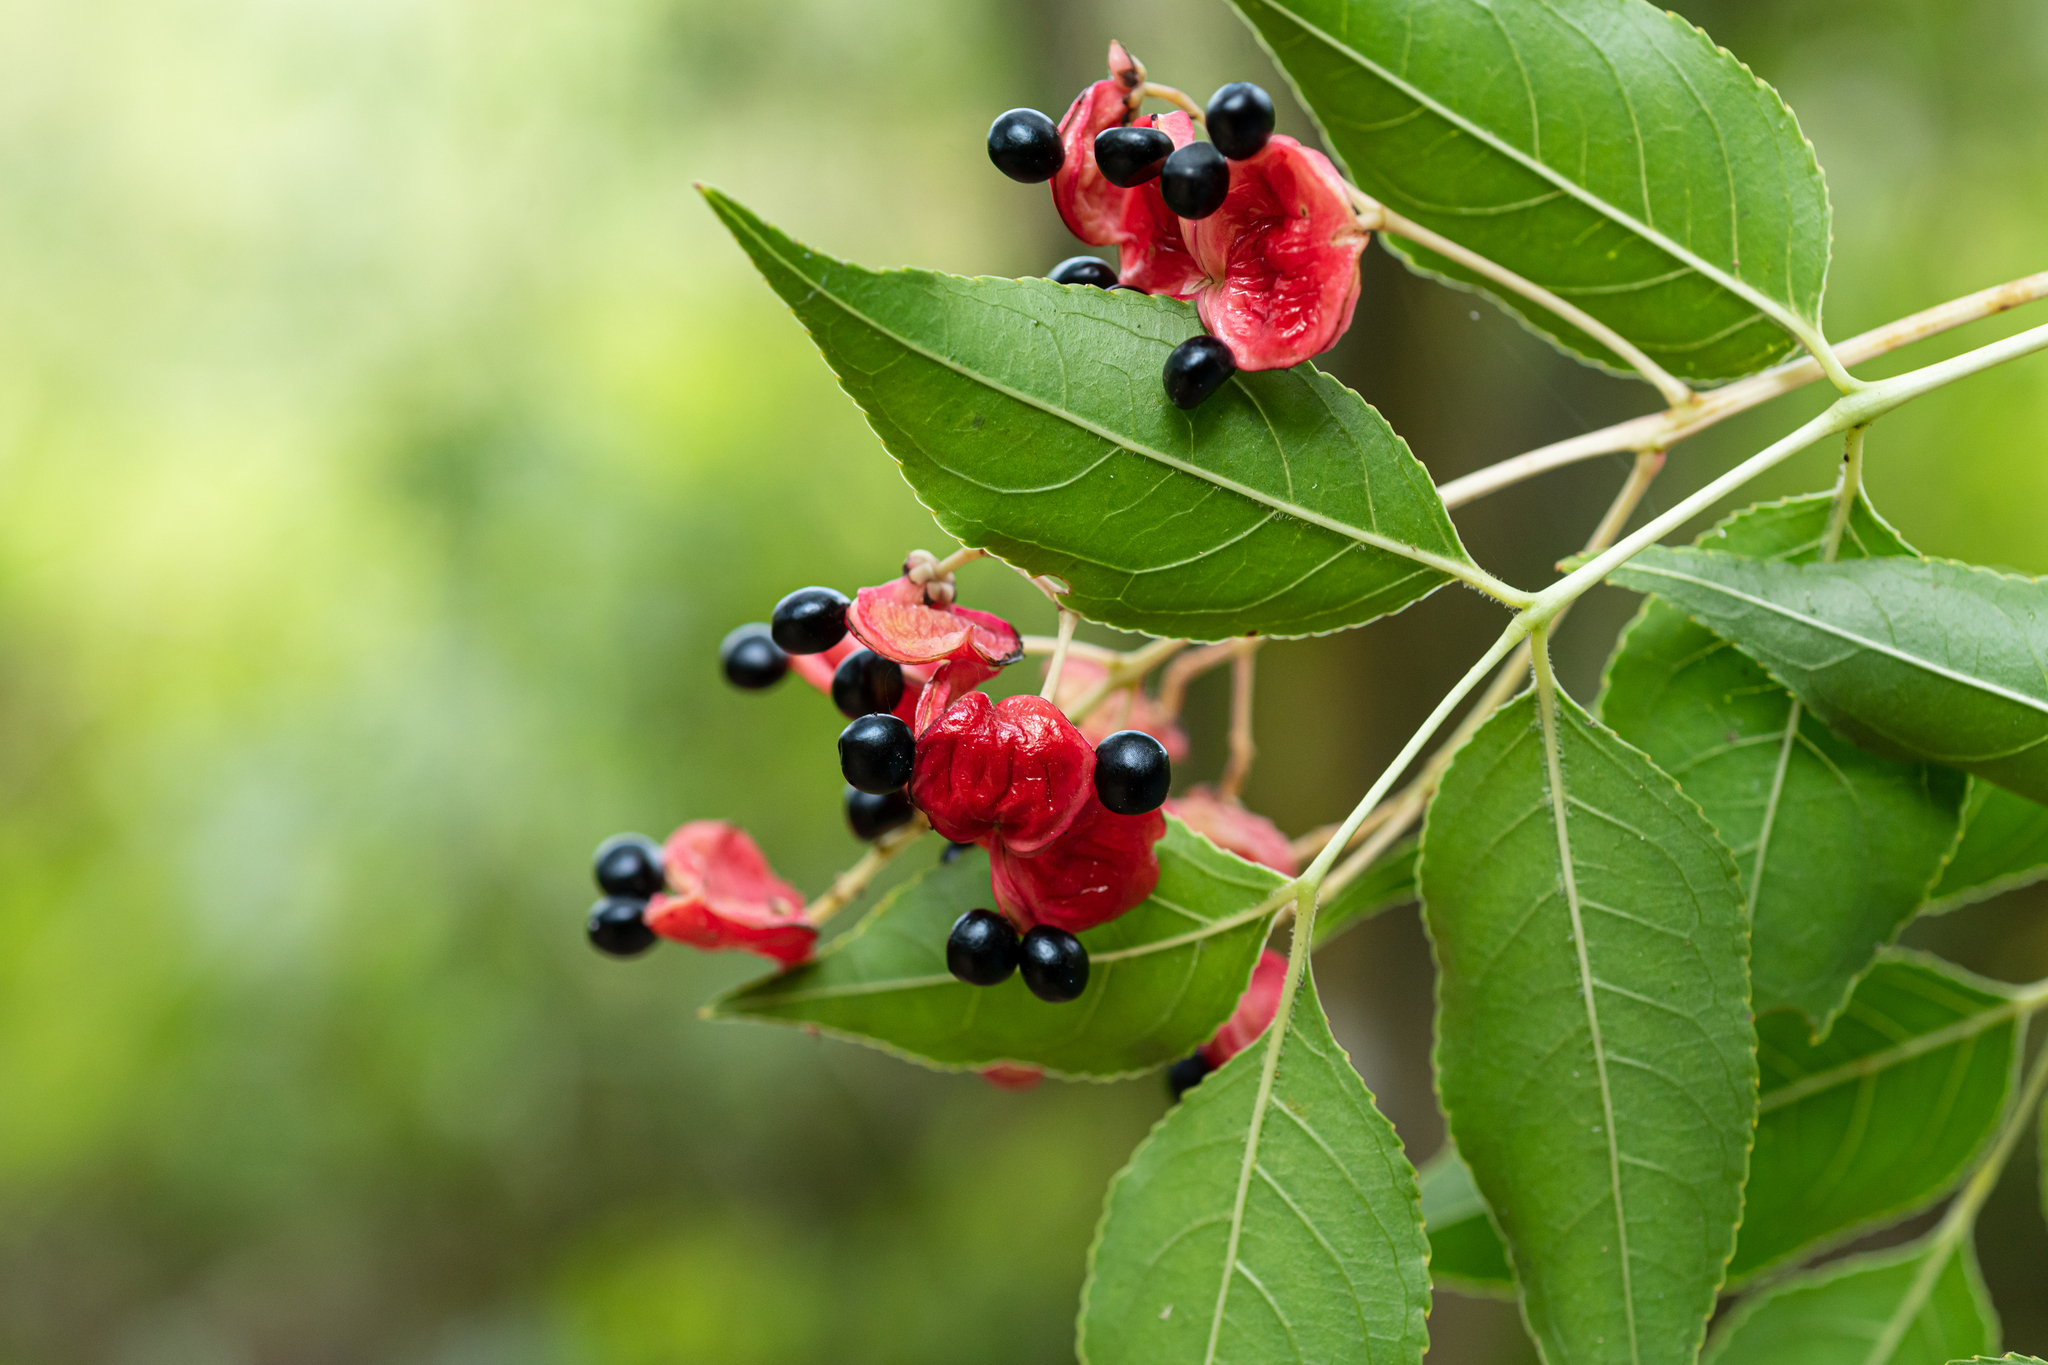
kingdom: Plantae
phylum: Tracheophyta
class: Magnoliopsida
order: Crossosomatales
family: Staphyleaceae
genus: Staphylea
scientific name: Staphylea japonica
